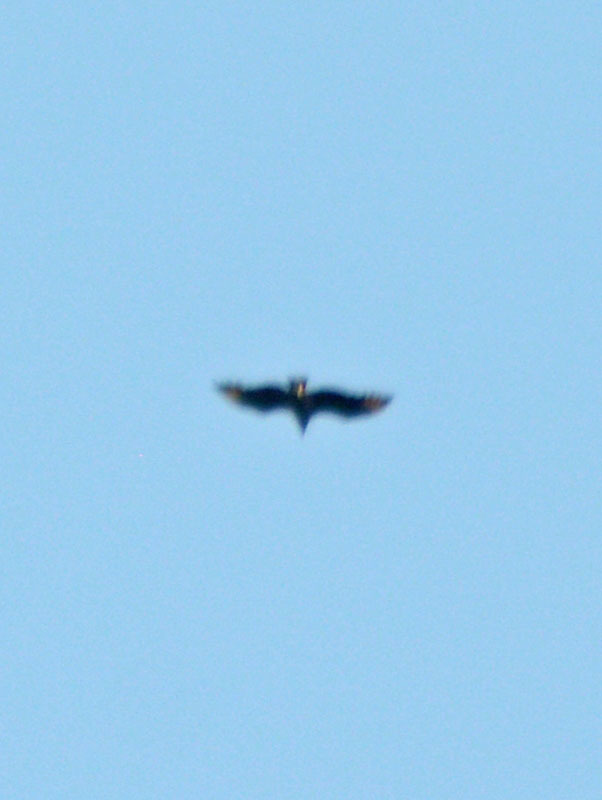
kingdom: Animalia
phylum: Chordata
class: Aves
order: Accipitriformes
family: Cathartidae
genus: Coragyps
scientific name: Coragyps atratus
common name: Black vulture
